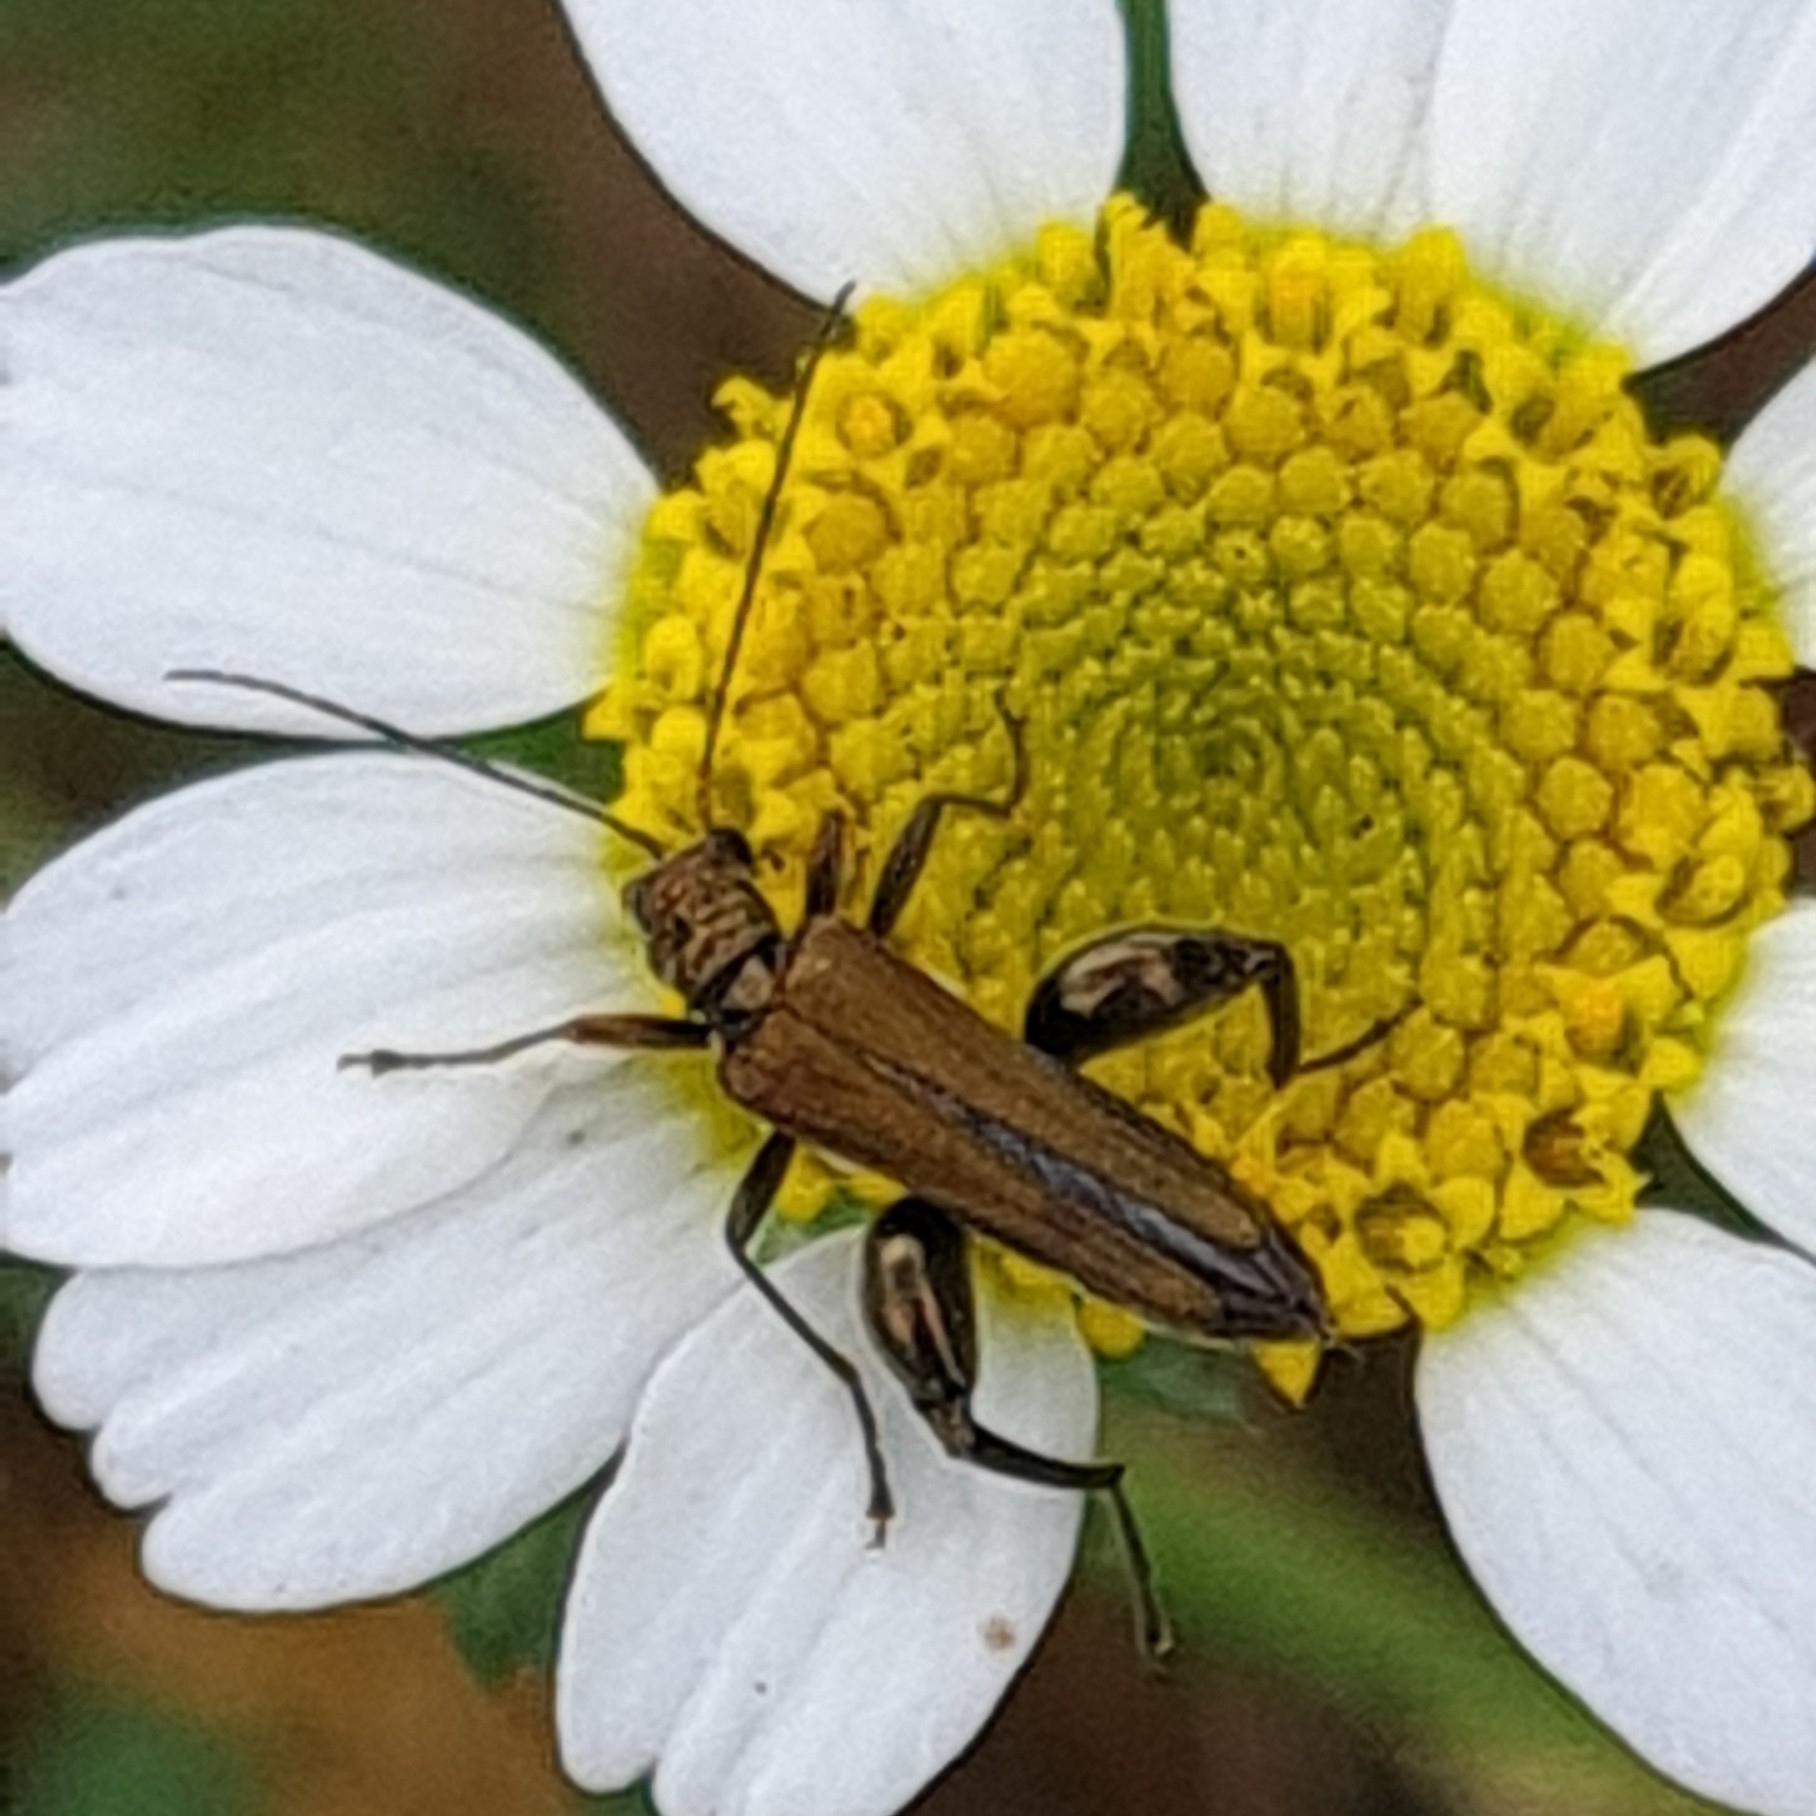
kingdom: Animalia
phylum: Arthropoda
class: Insecta
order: Coleoptera
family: Oedemeridae
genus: Oedemera
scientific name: Oedemera flavipes
